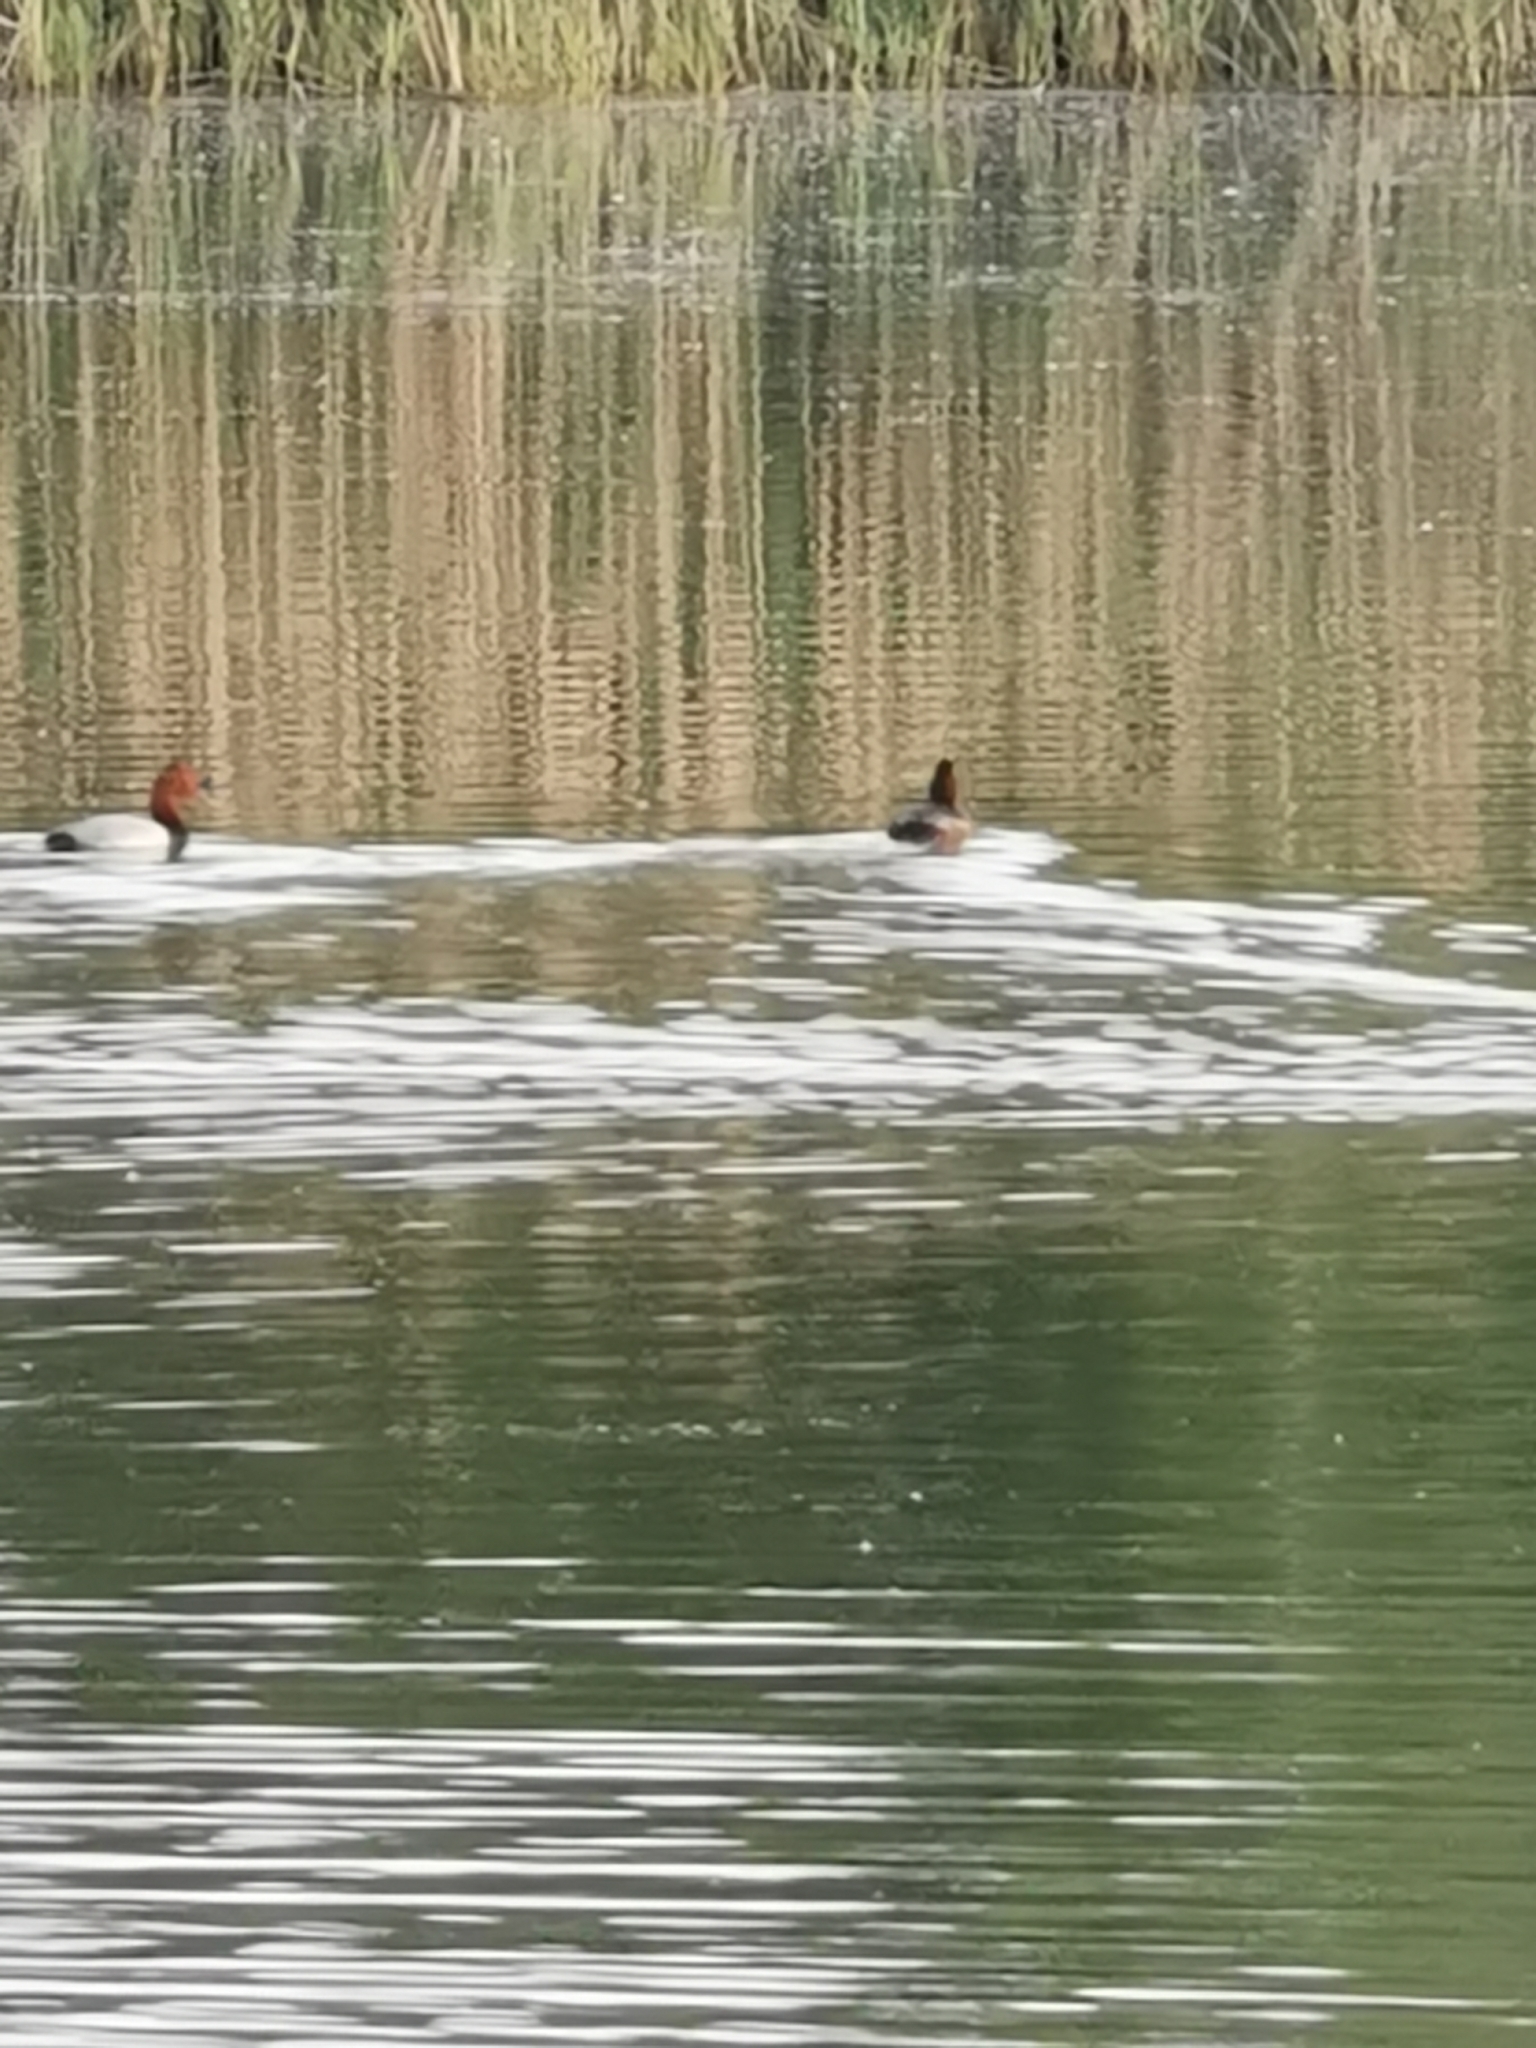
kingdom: Animalia
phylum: Chordata
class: Aves
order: Anseriformes
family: Anatidae
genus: Aythya
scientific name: Aythya ferina
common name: Common pochard
